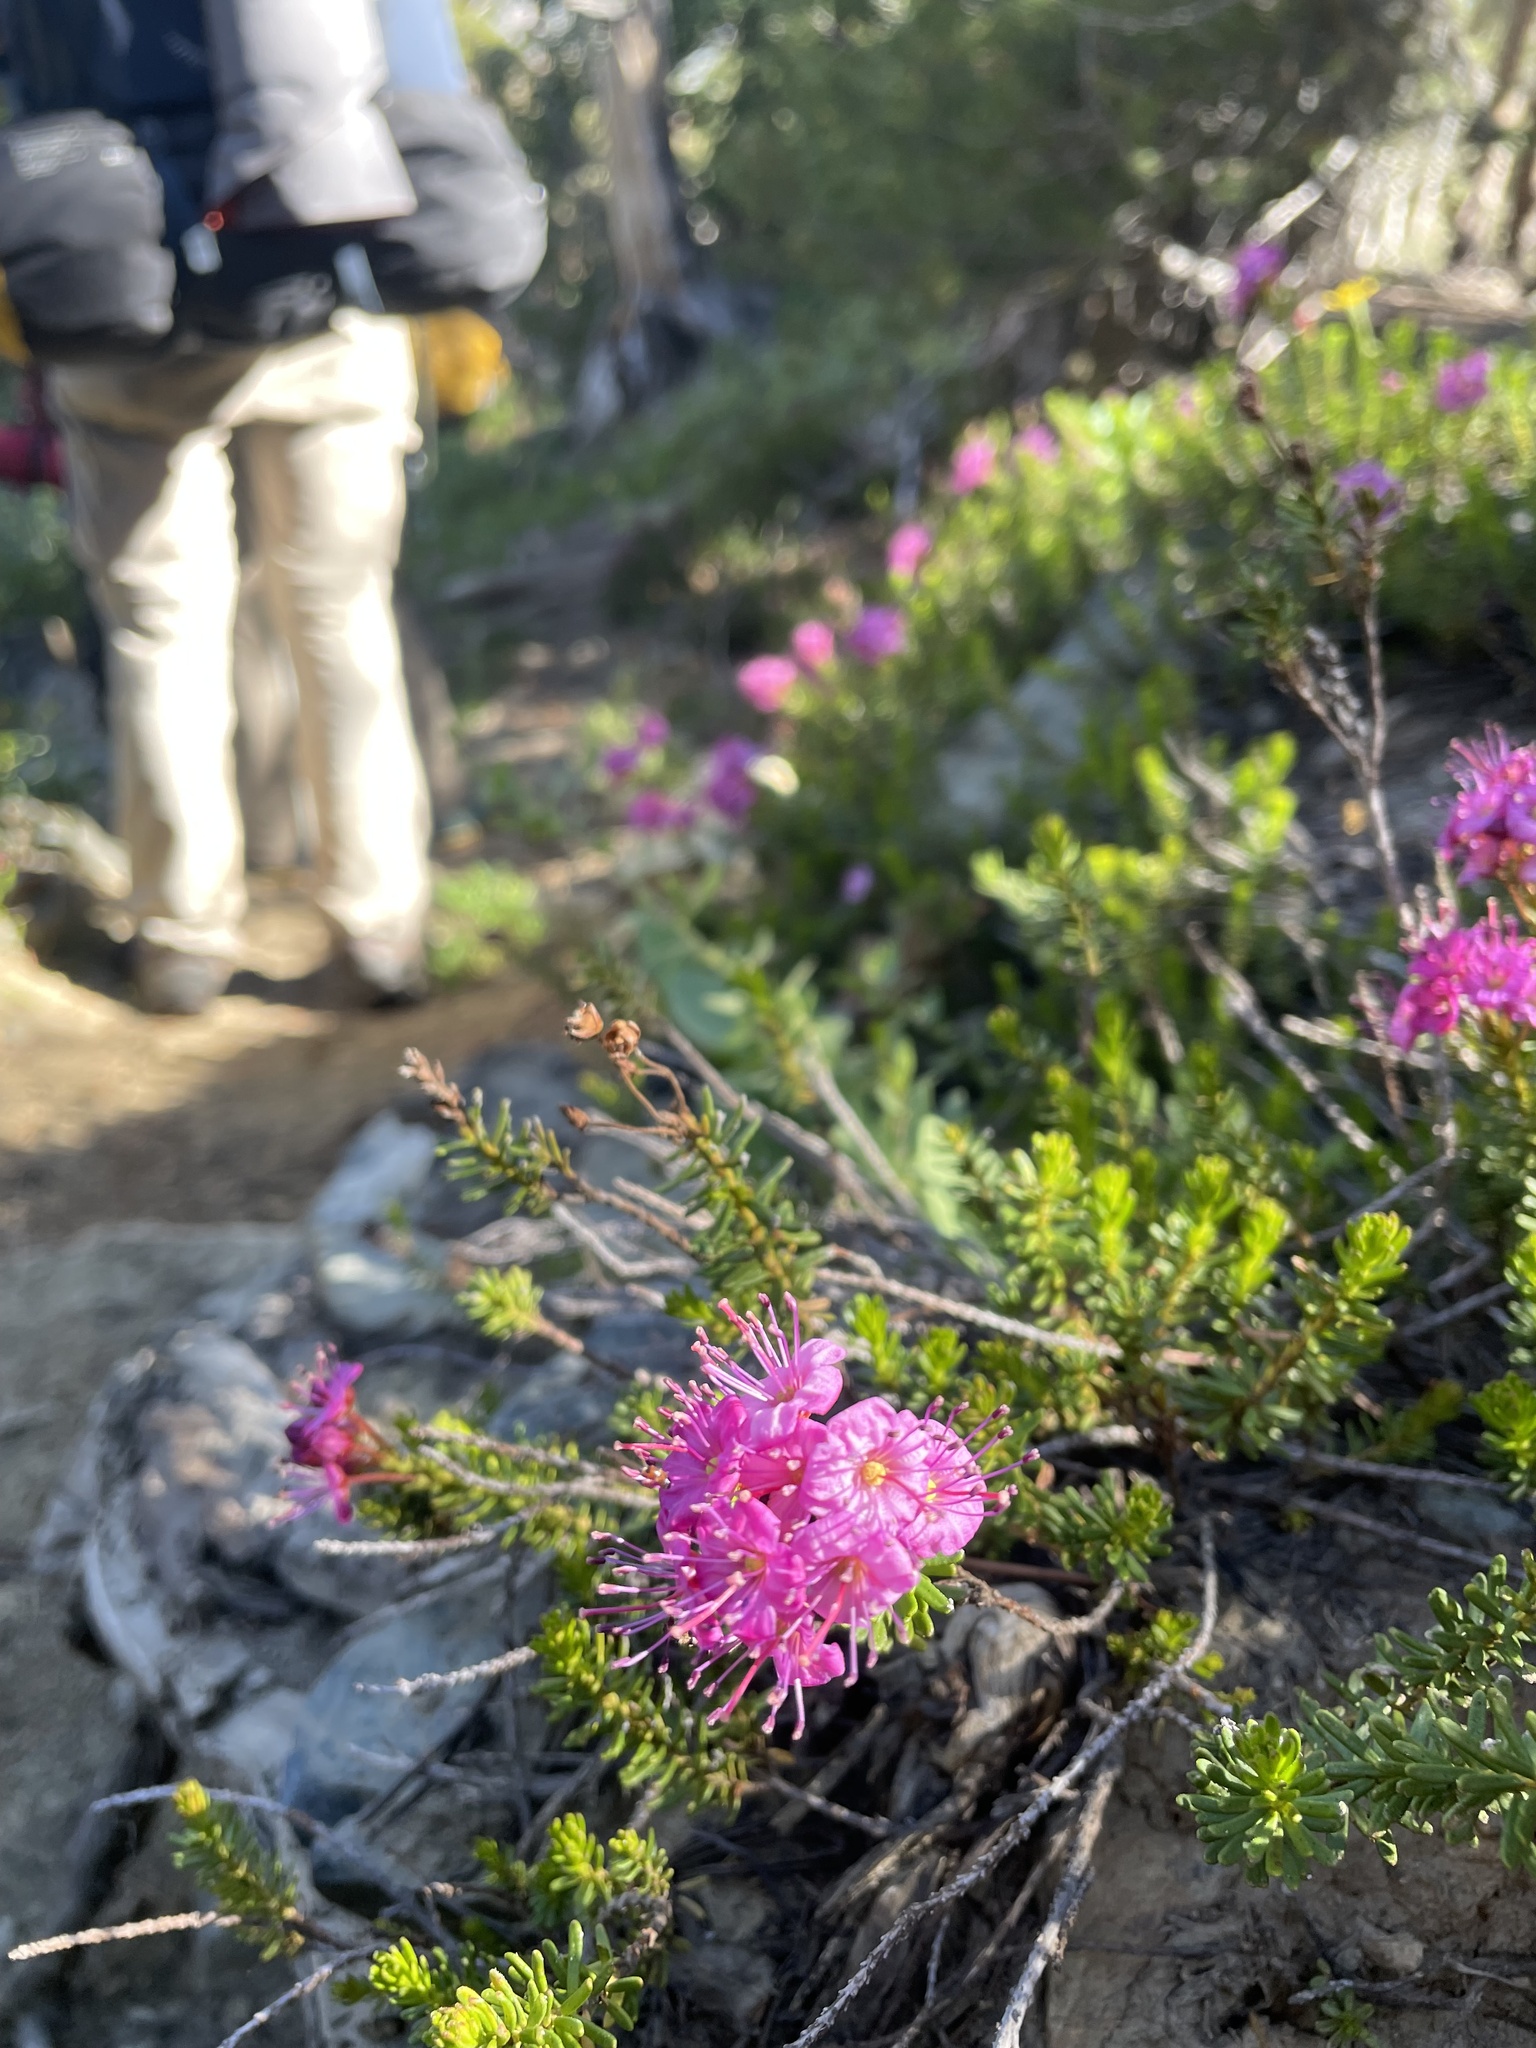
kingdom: Plantae
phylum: Tracheophyta
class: Magnoliopsida
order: Ericales
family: Ericaceae
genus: Phyllodoce
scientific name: Phyllodoce breweri
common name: Brewer's mountain-heather
